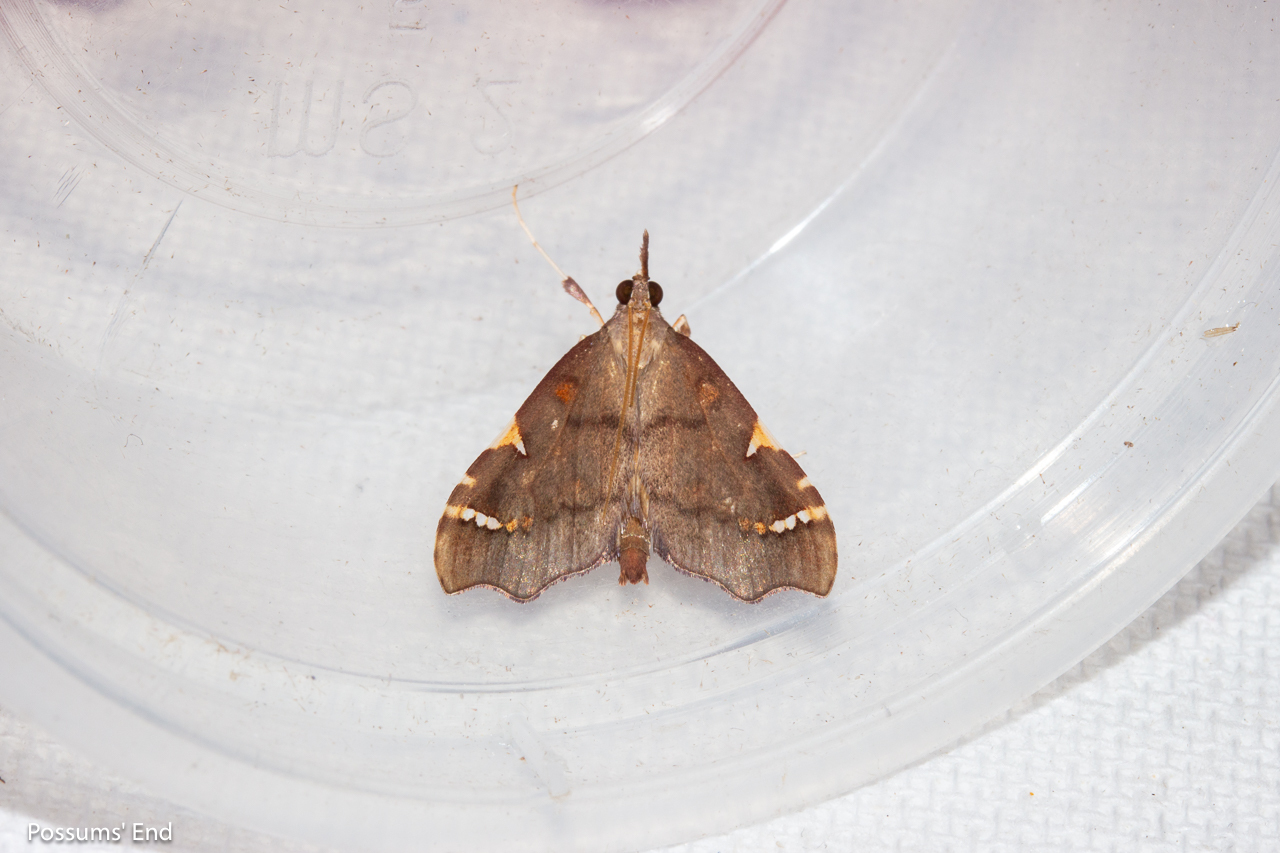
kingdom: Animalia
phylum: Arthropoda
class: Insecta
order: Lepidoptera
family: Crambidae
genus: Deana
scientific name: Deana hybreasalis
